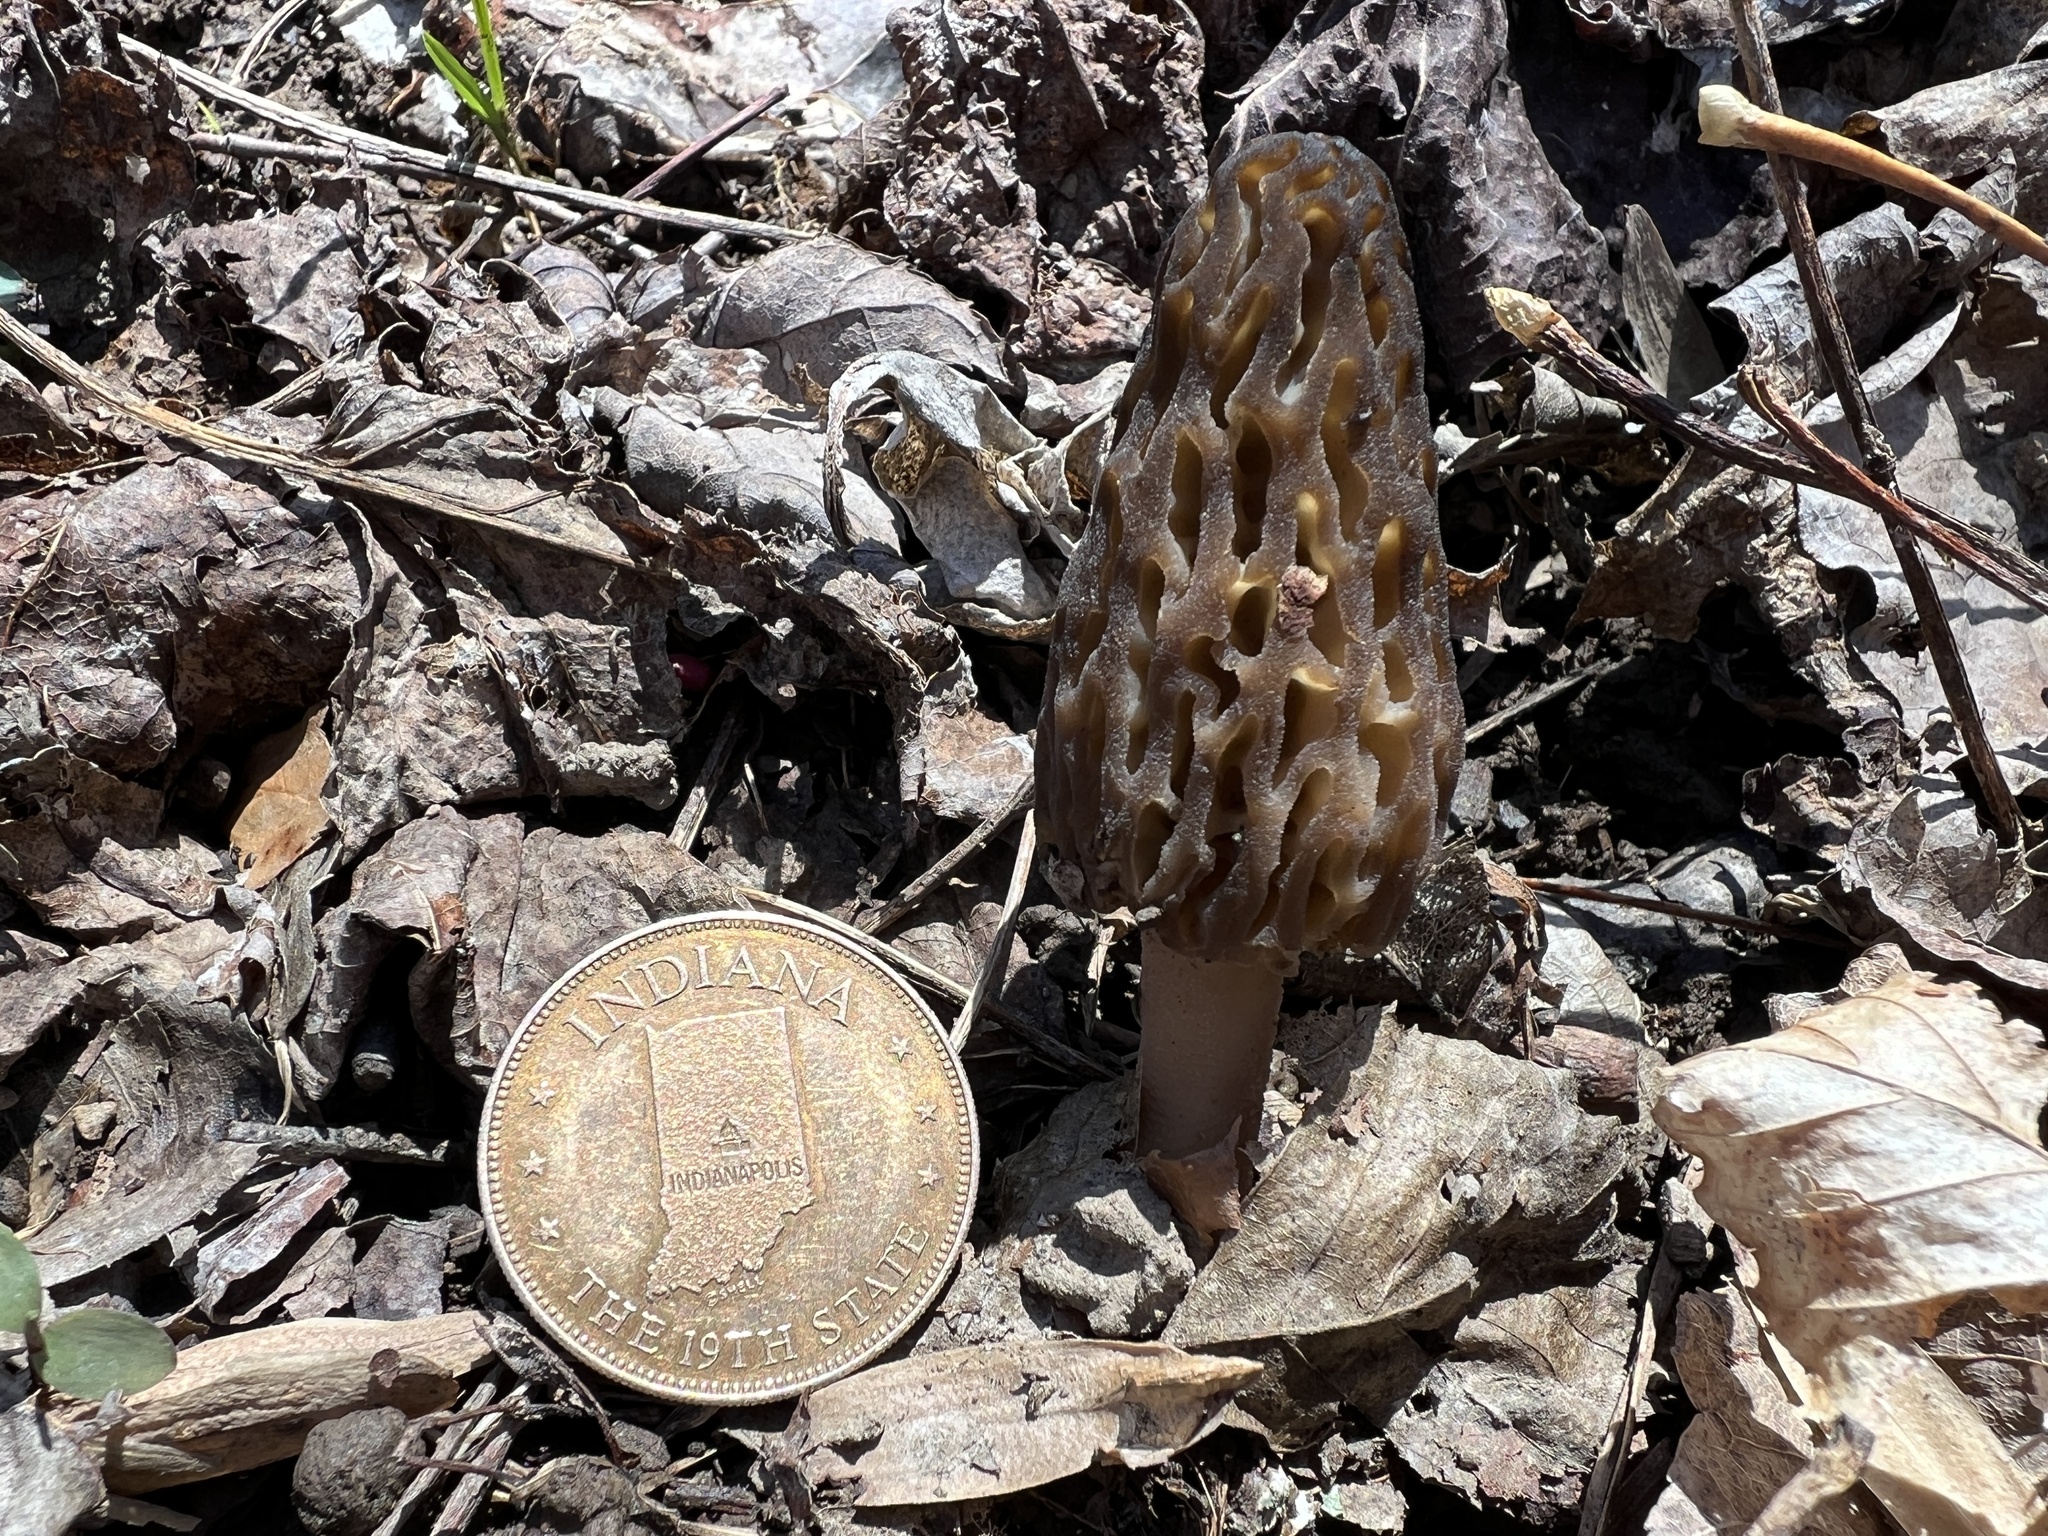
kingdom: Fungi
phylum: Ascomycota
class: Pezizomycetes
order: Pezizales
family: Morchellaceae
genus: Morchella
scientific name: Morchella angusticeps
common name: Black morel
